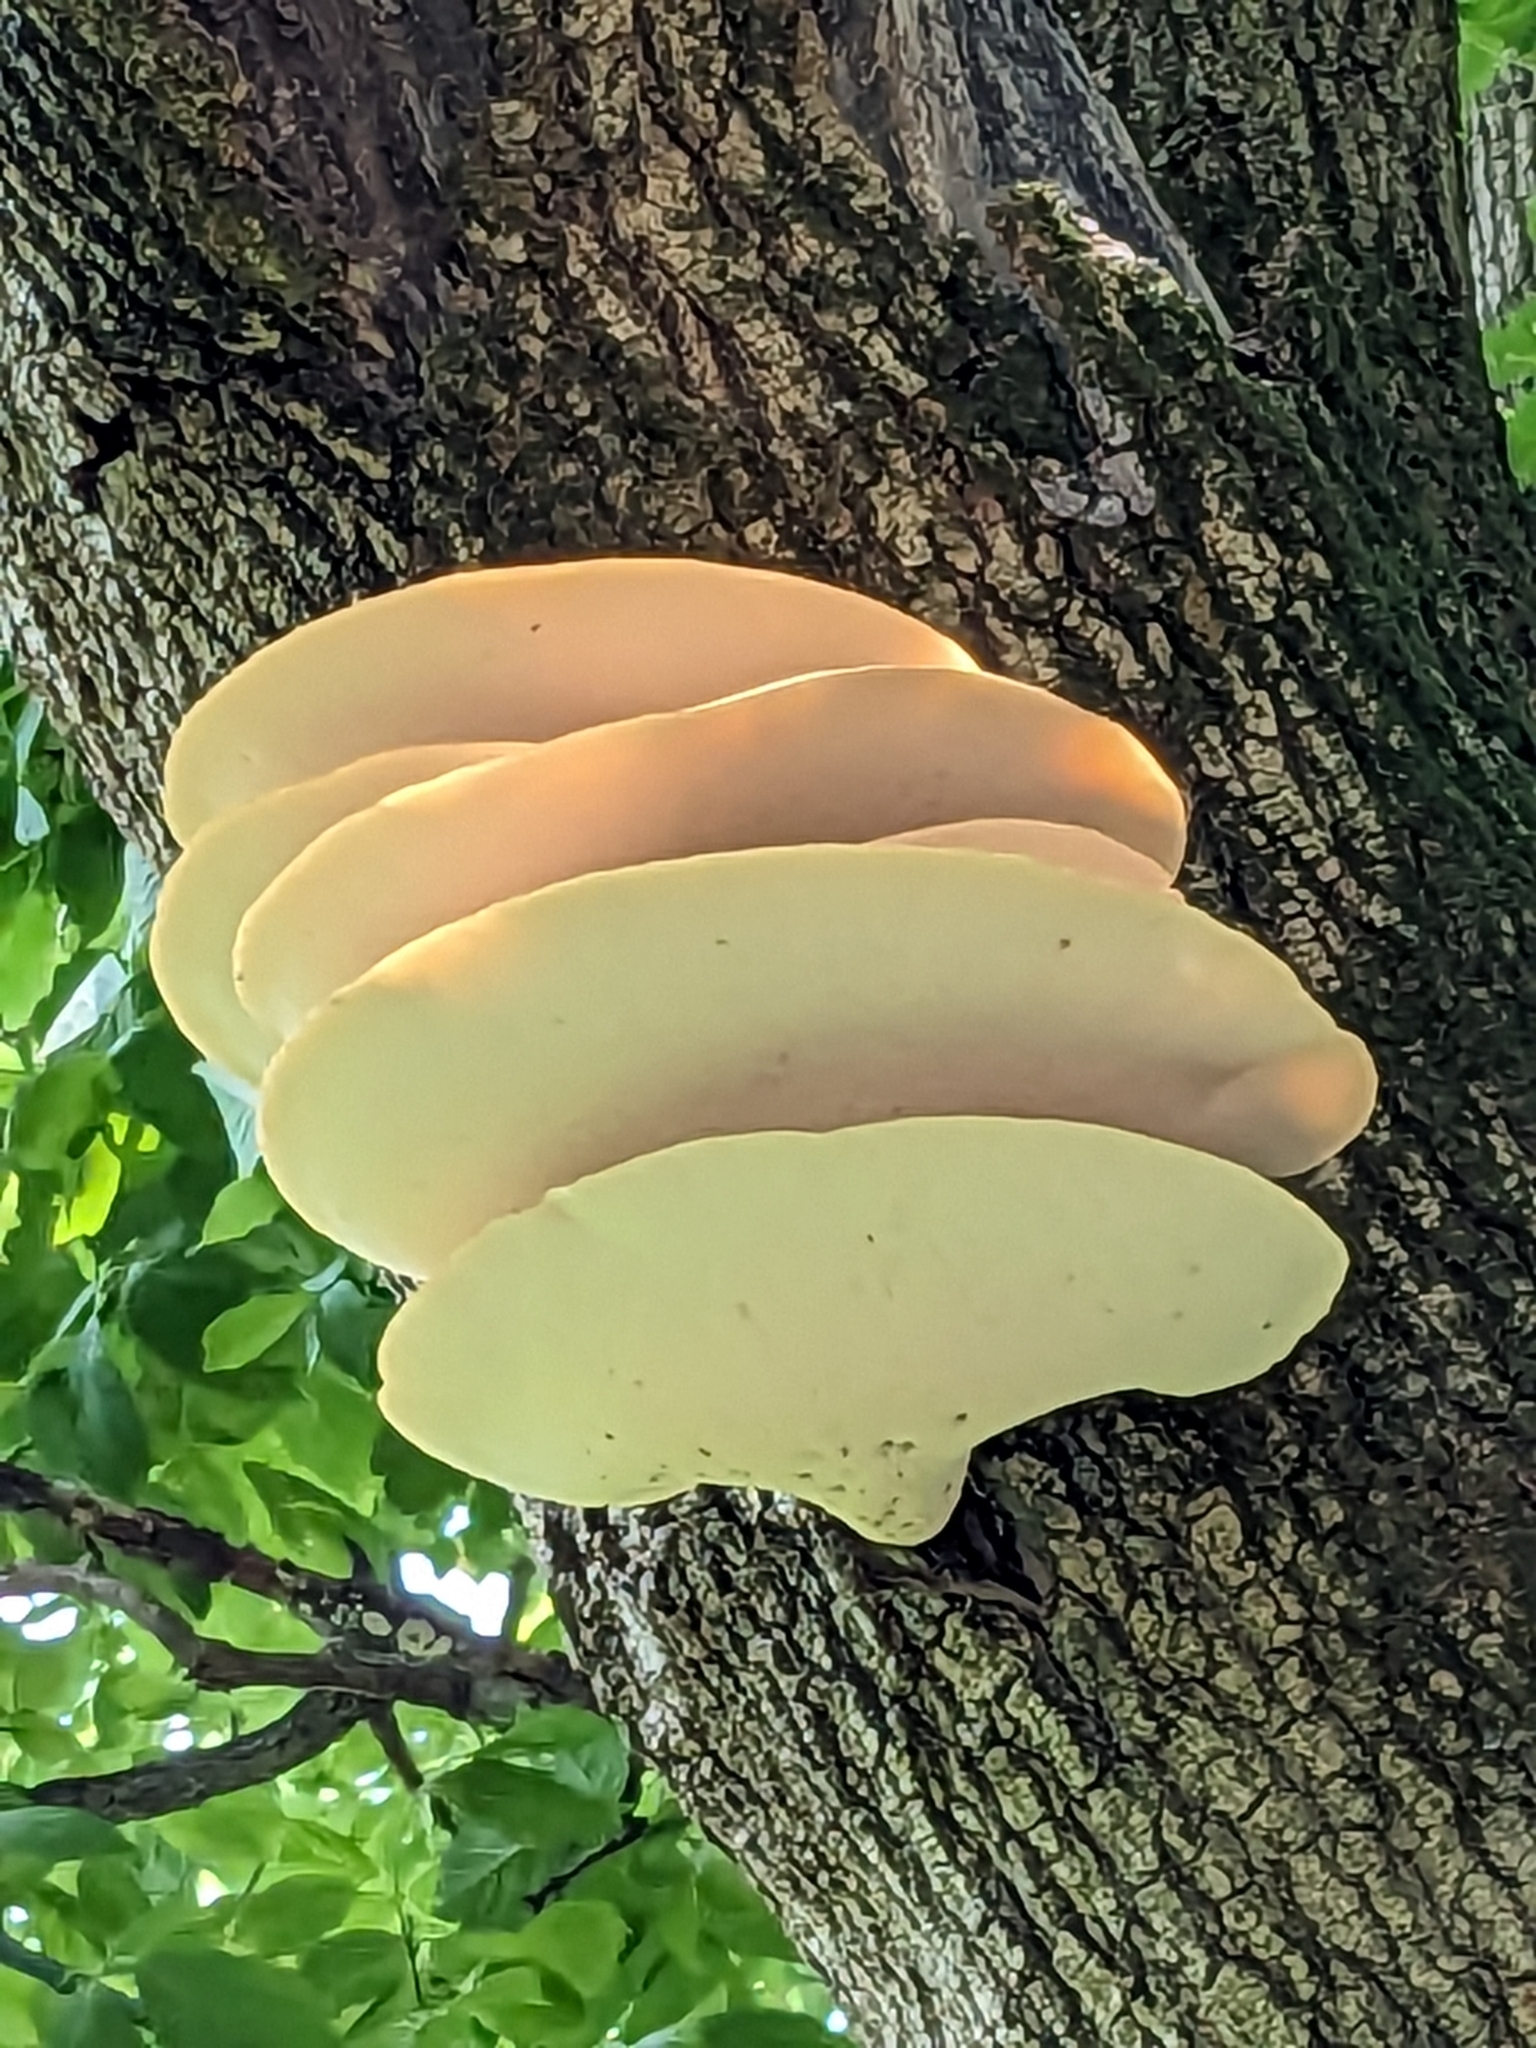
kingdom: Fungi
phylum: Basidiomycota
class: Agaricomycetes
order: Polyporales
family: Polyporaceae
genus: Cerioporus
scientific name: Cerioporus squamosus
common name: Dryad's saddle
